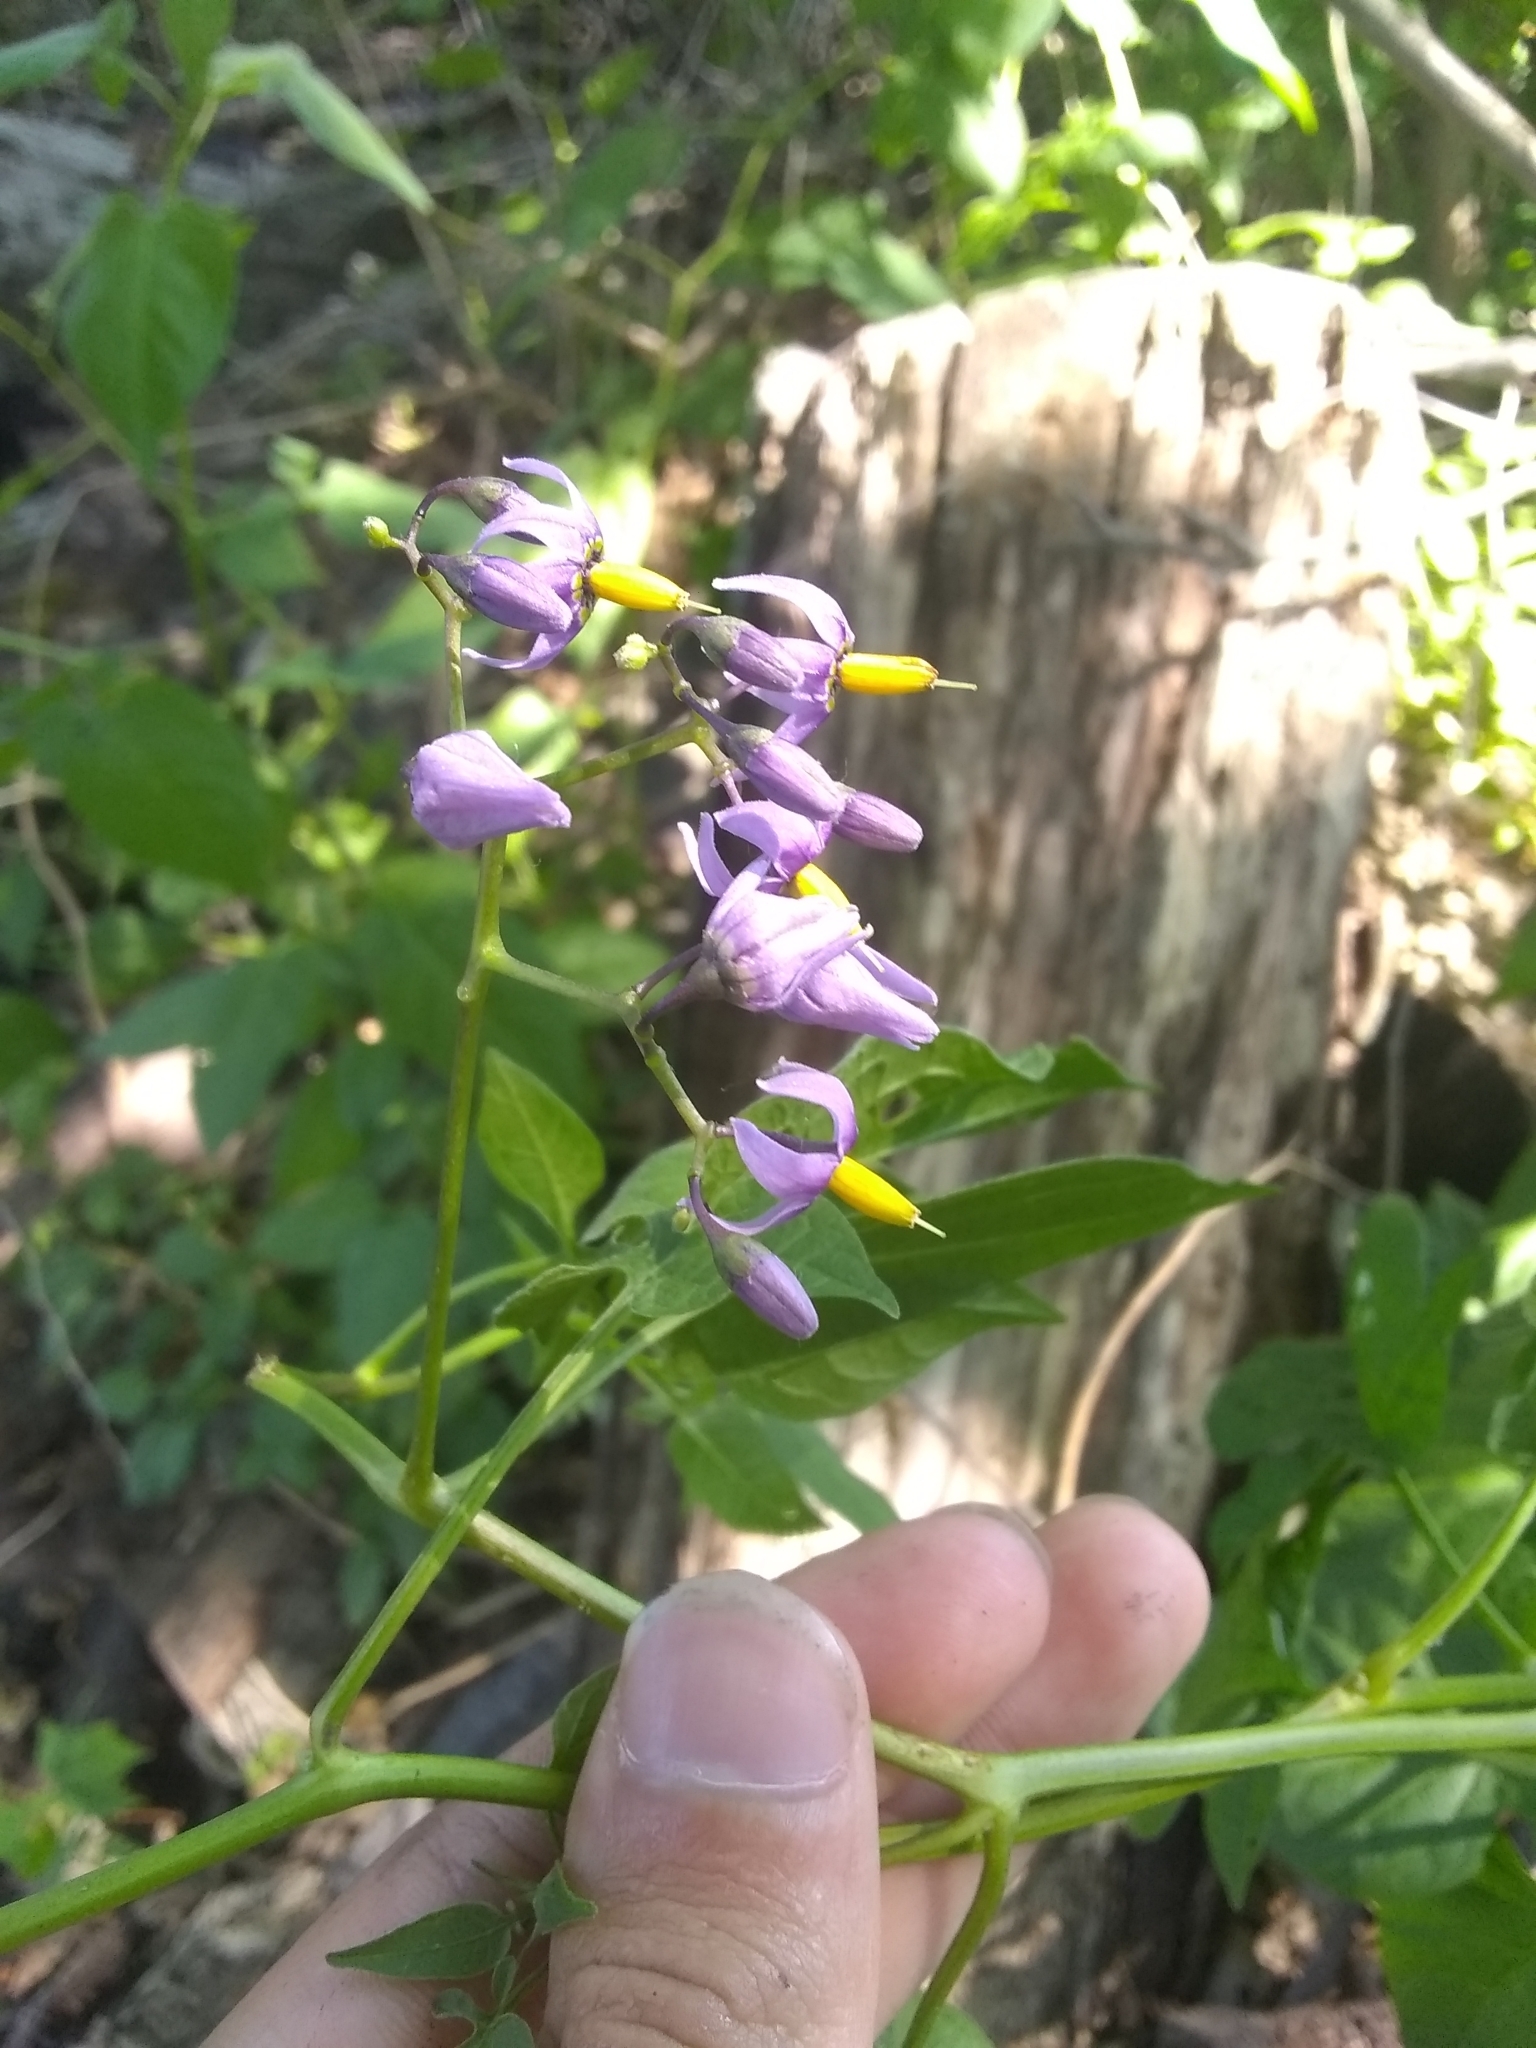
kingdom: Plantae
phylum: Tracheophyta
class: Magnoliopsida
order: Solanales
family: Solanaceae
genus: Solanum
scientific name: Solanum dulcamara
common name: Climbing nightshade
